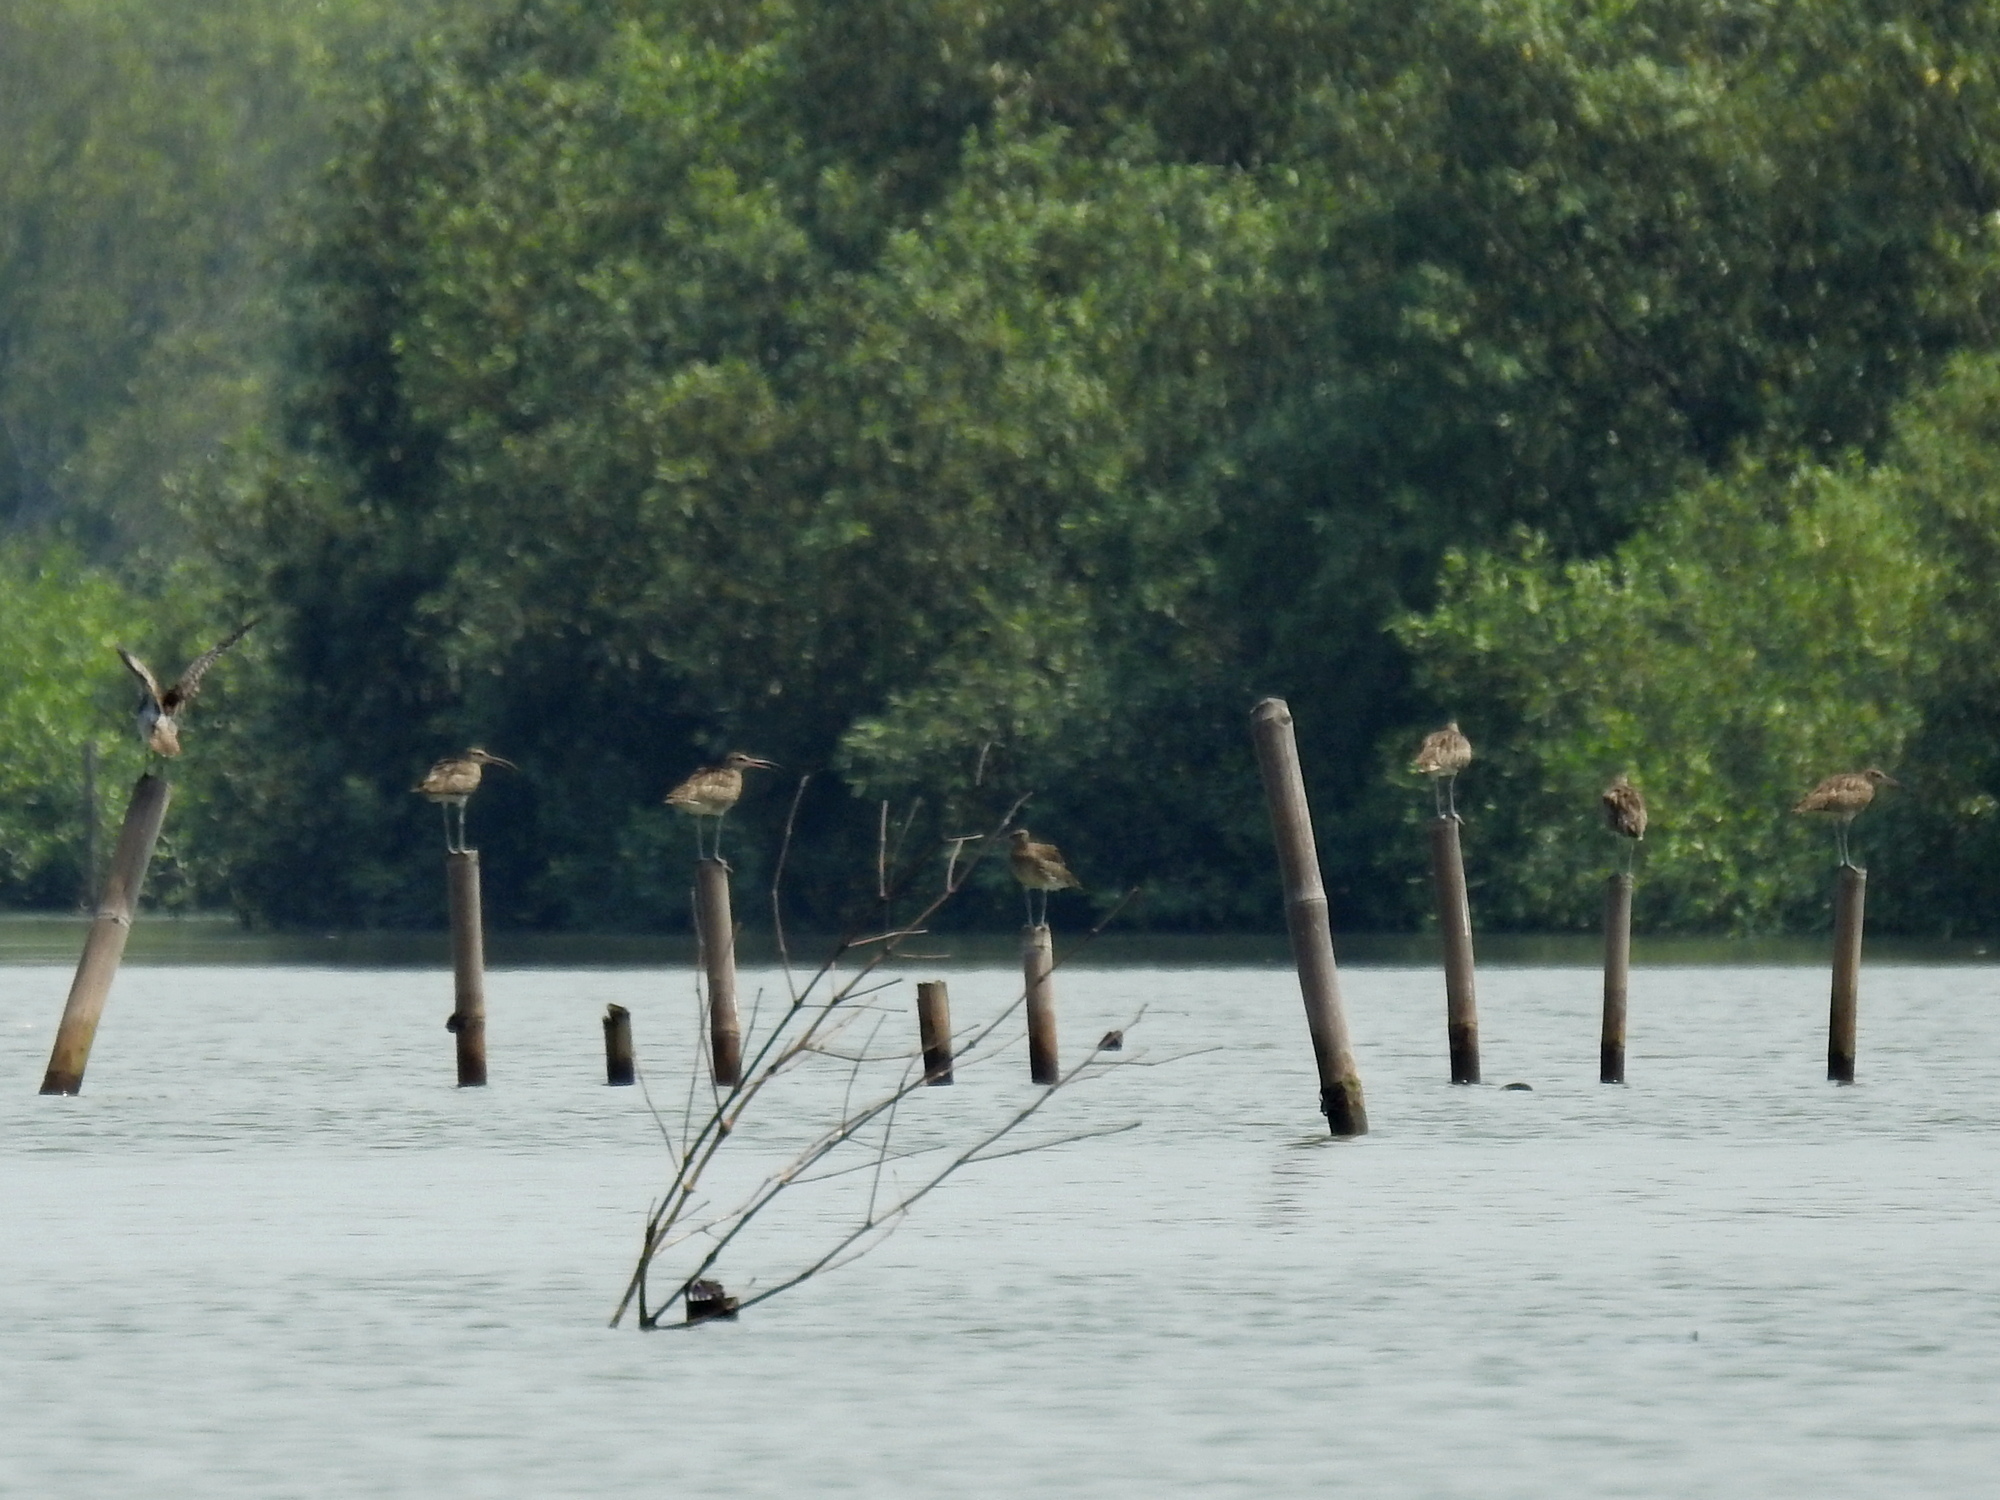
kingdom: Animalia
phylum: Chordata
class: Aves
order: Charadriiformes
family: Scolopacidae
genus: Numenius
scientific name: Numenius phaeopus
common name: Whimbrel
